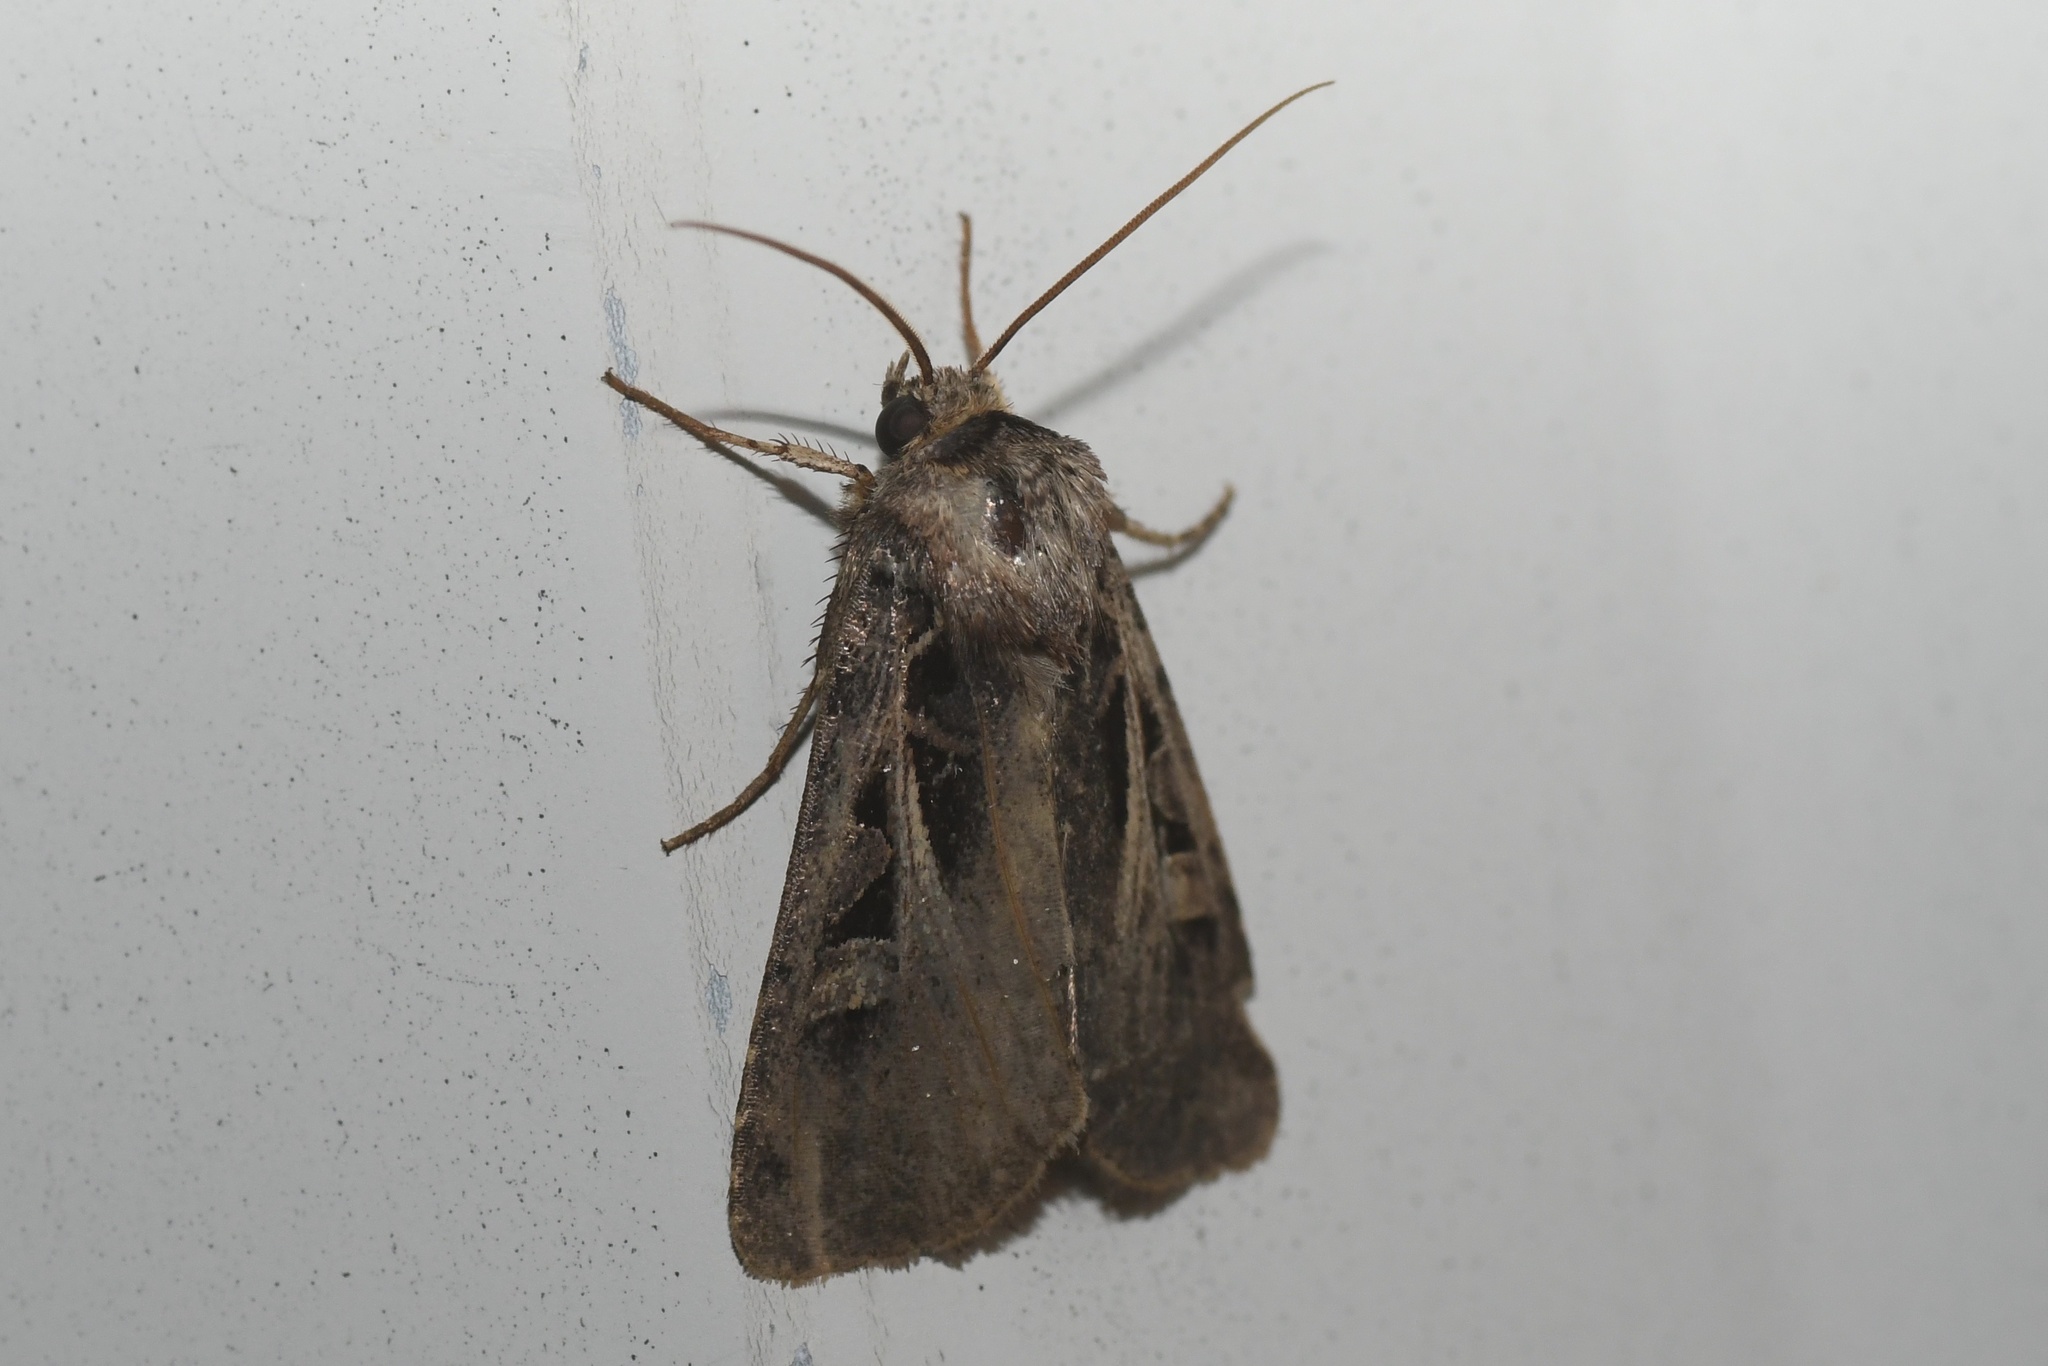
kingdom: Animalia
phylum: Arthropoda
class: Insecta
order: Lepidoptera
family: Noctuidae
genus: Feltia
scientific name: Feltia herilis
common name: Master's dart
